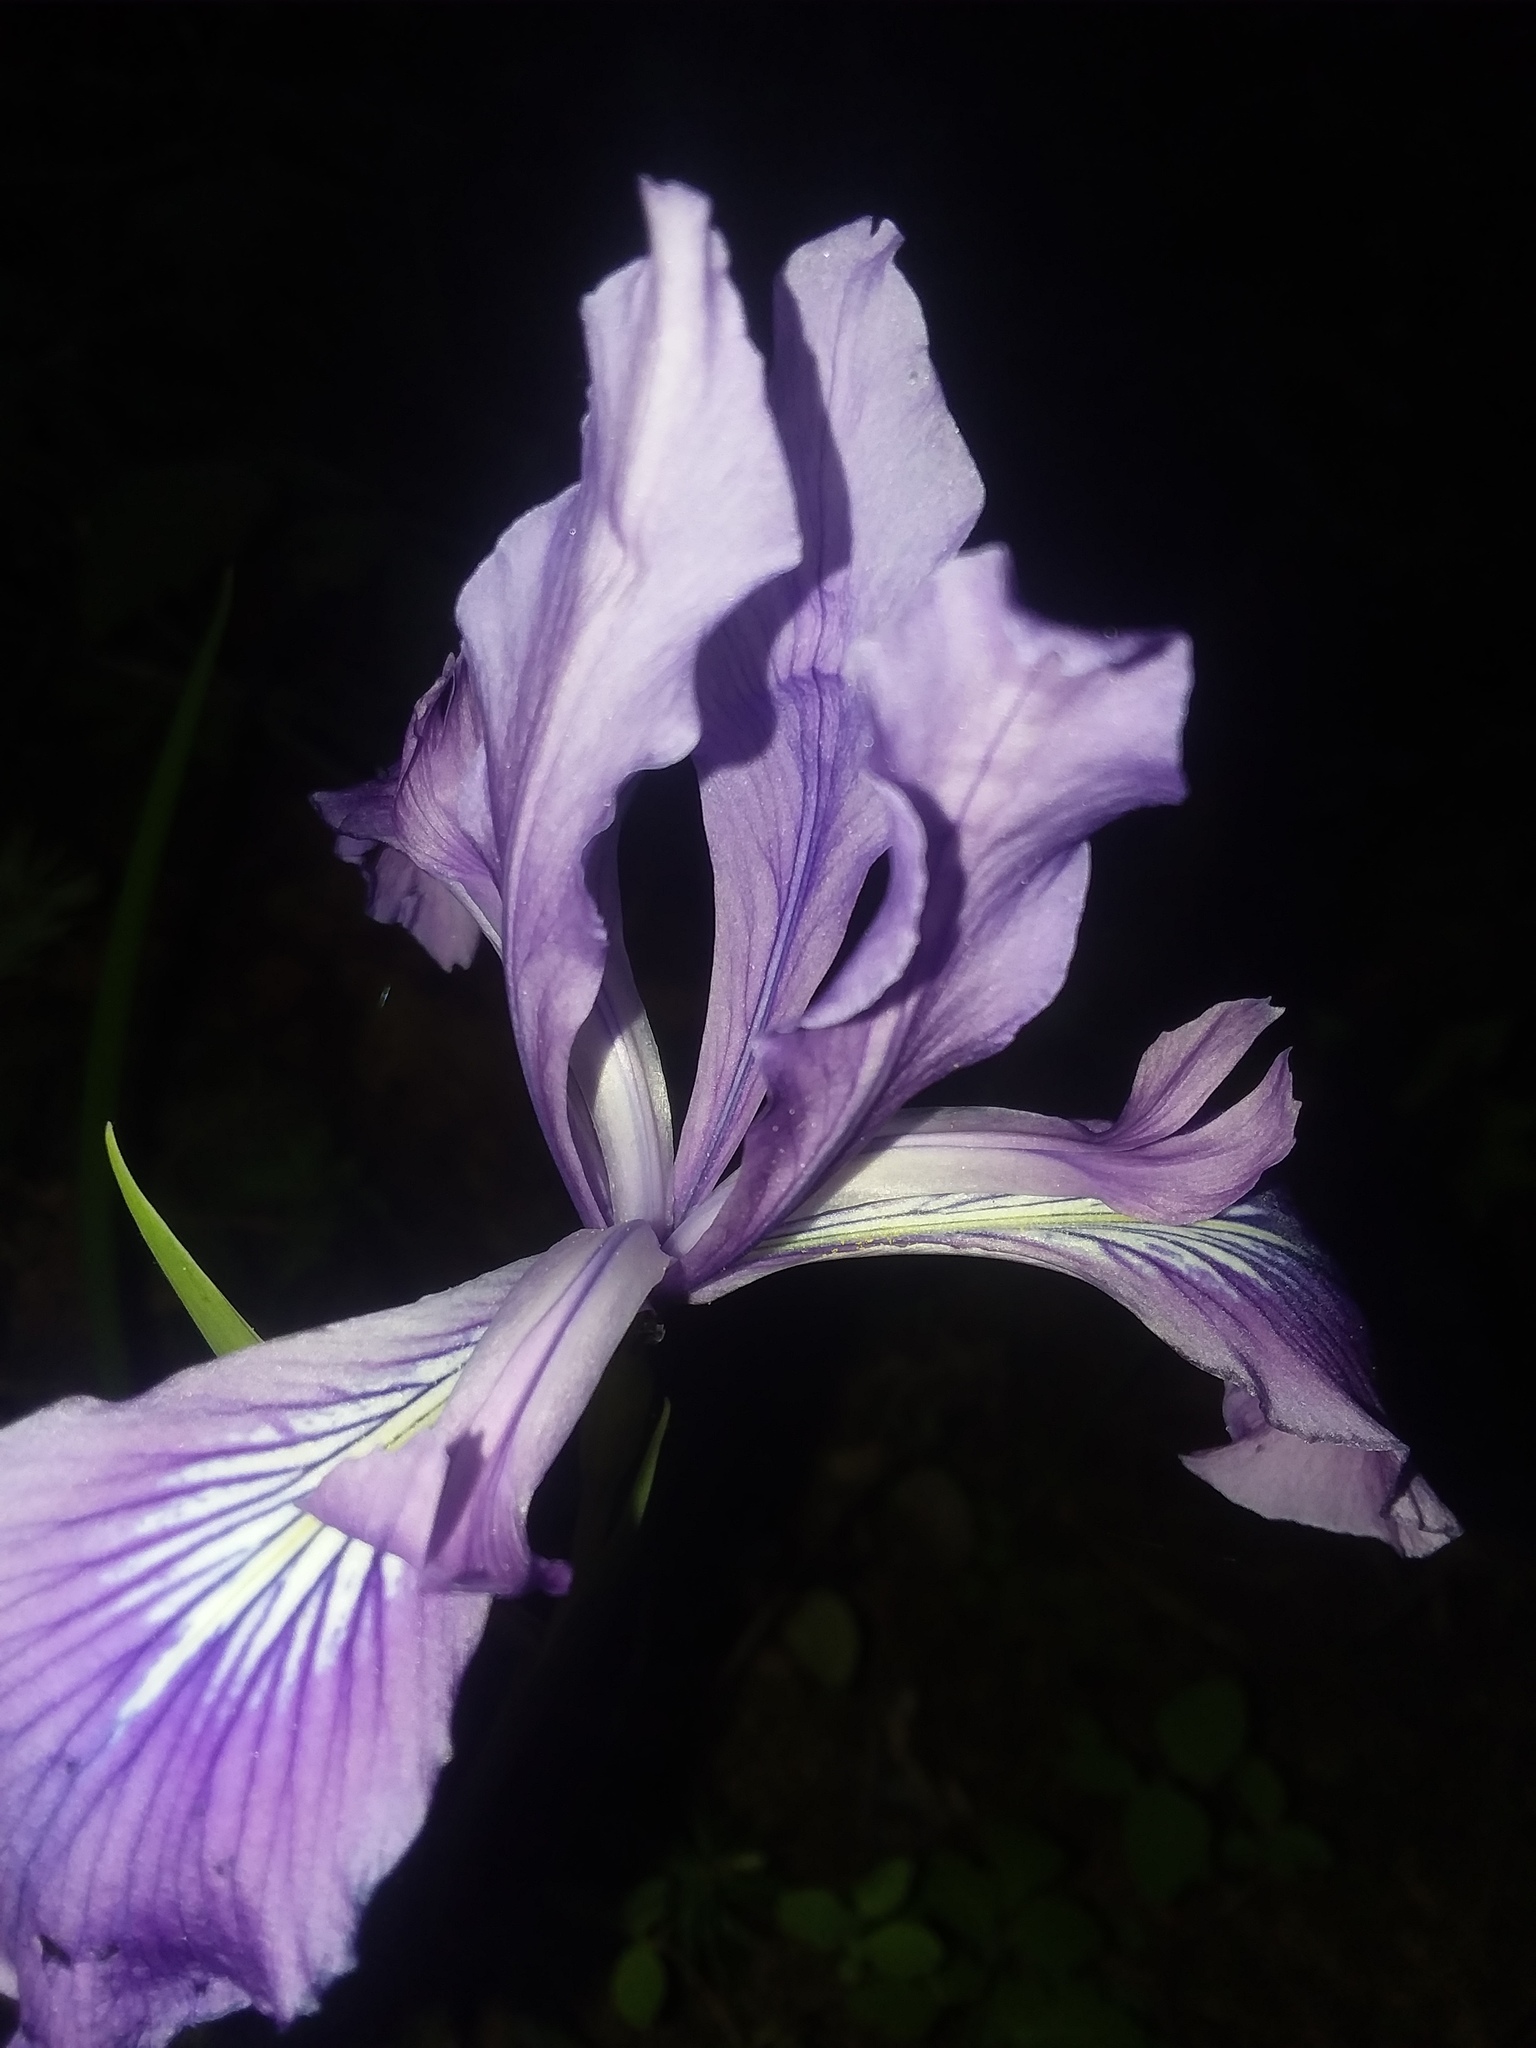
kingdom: Plantae
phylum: Tracheophyta
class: Liliopsida
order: Asparagales
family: Iridaceae
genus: Iris
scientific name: Iris tenax
